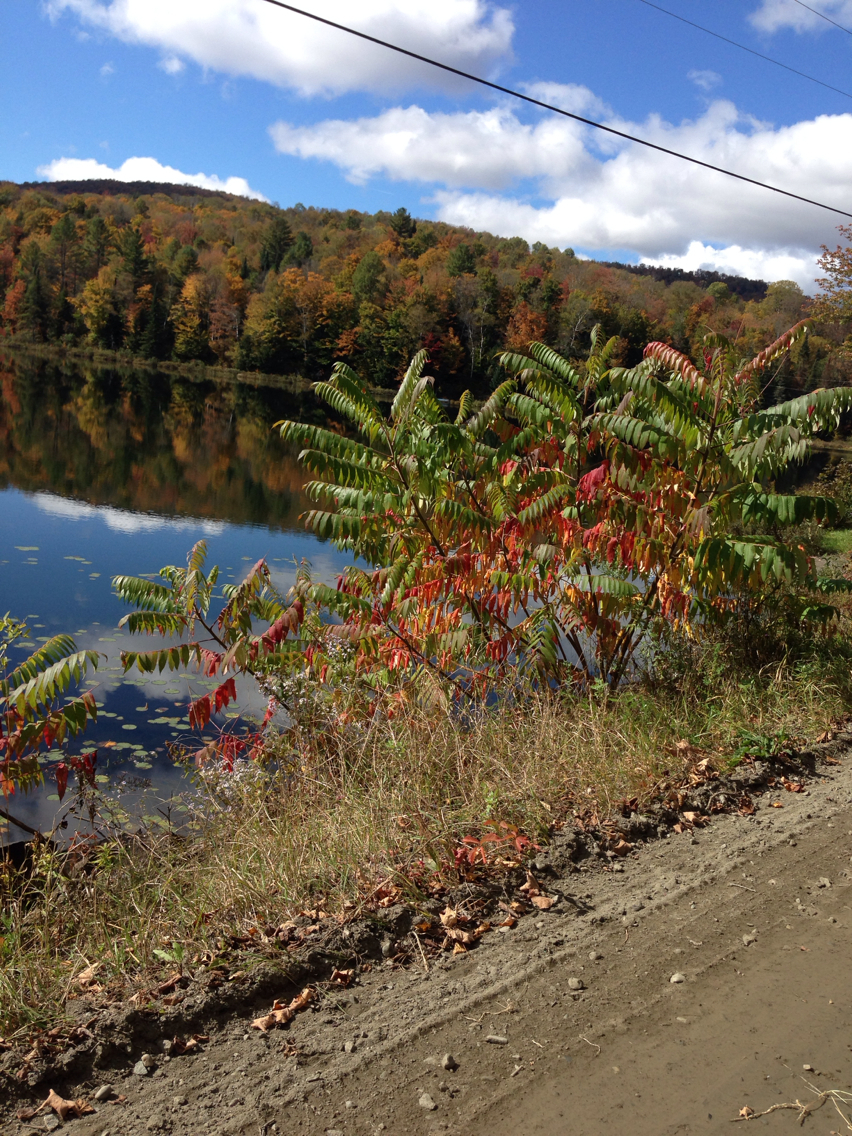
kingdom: Plantae
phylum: Tracheophyta
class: Magnoliopsida
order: Sapindales
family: Sapindaceae
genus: Acer
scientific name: Acer saccharum
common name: Sugar maple
